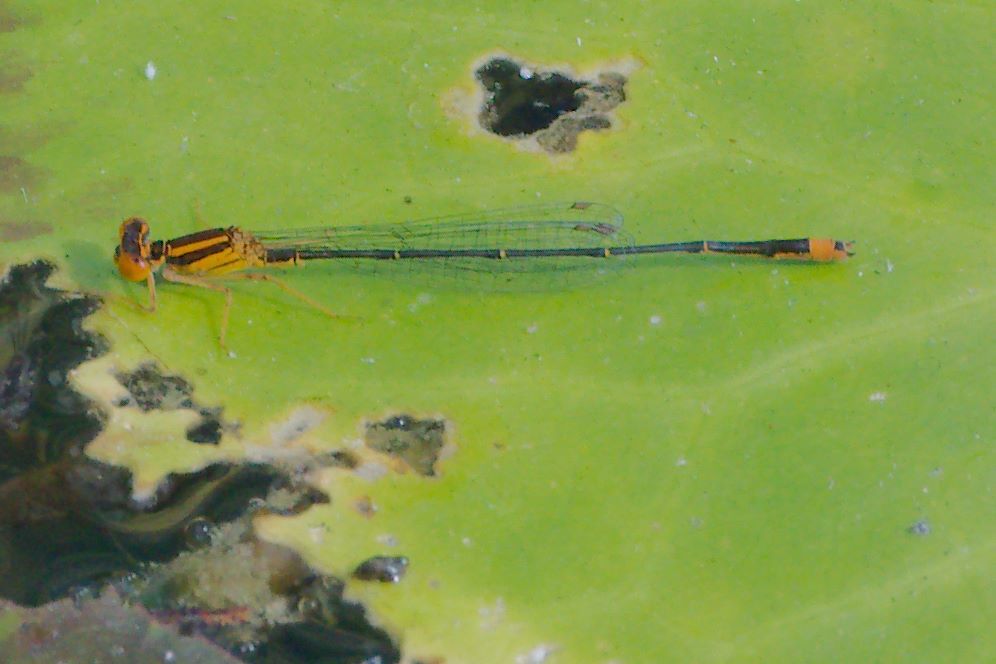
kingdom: Animalia
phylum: Arthropoda
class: Insecta
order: Odonata
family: Coenagrionidae
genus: Enallagma
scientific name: Enallagma pollutum
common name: Florida bluet
